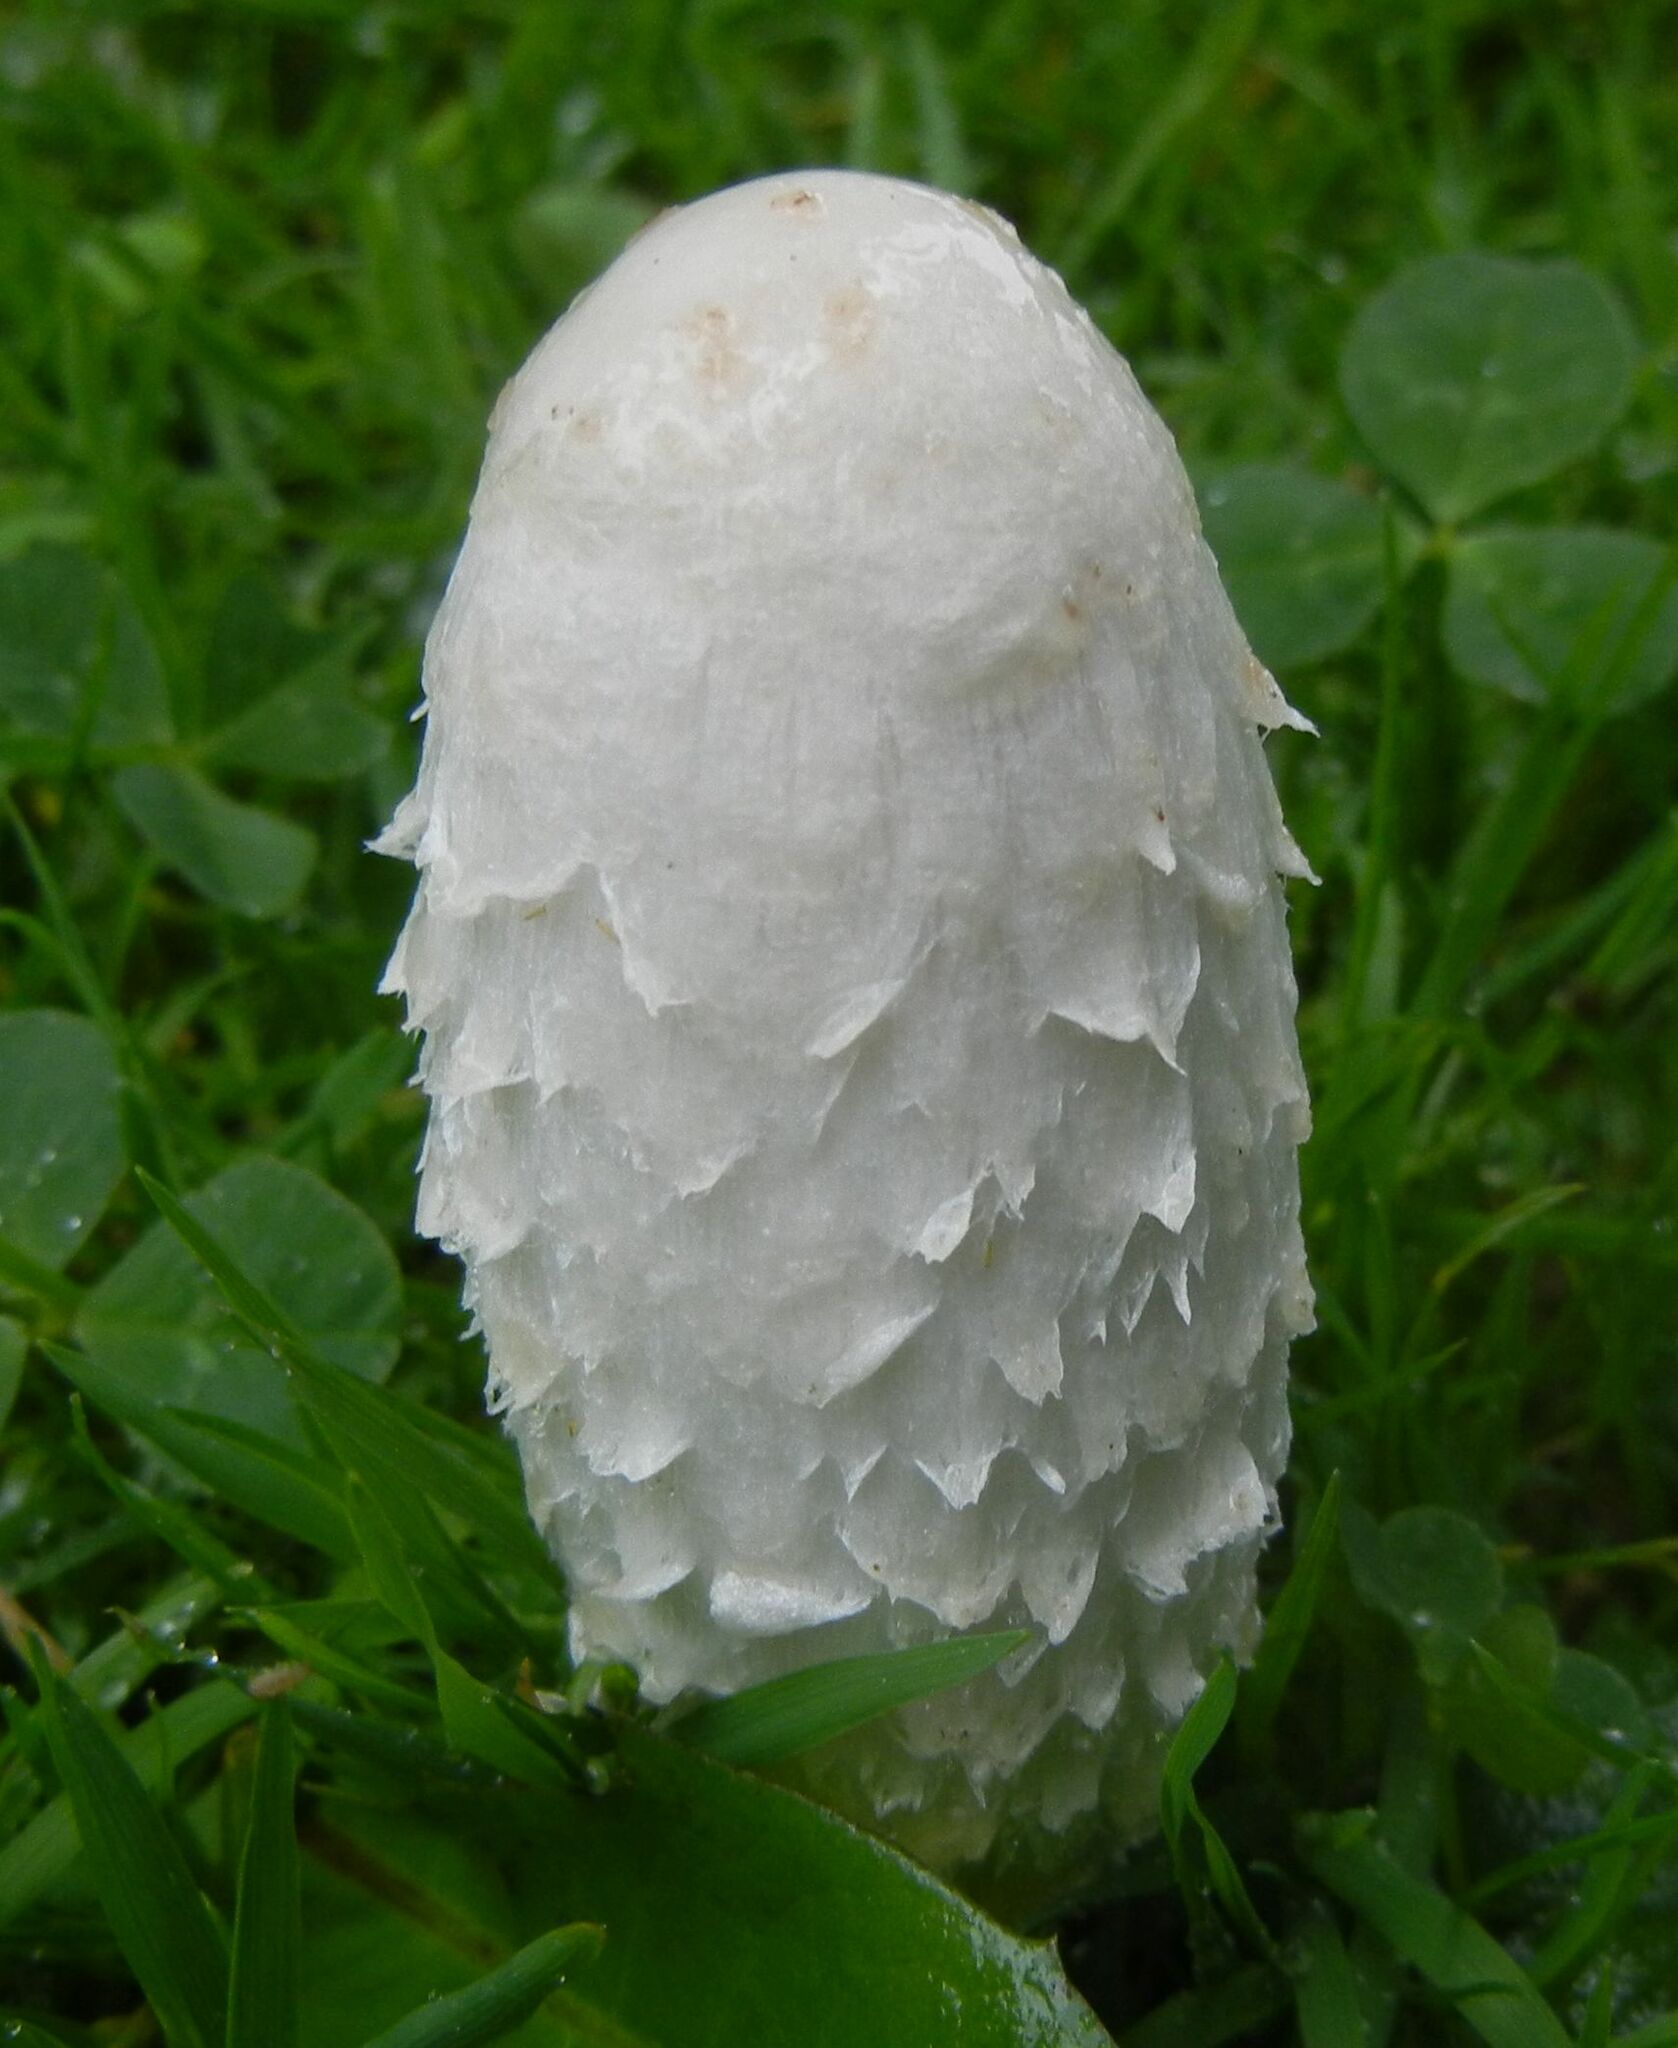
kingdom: Fungi
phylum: Basidiomycota
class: Agaricomycetes
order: Agaricales
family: Agaricaceae
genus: Coprinus
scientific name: Coprinus comatus
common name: Lawyer's wig
